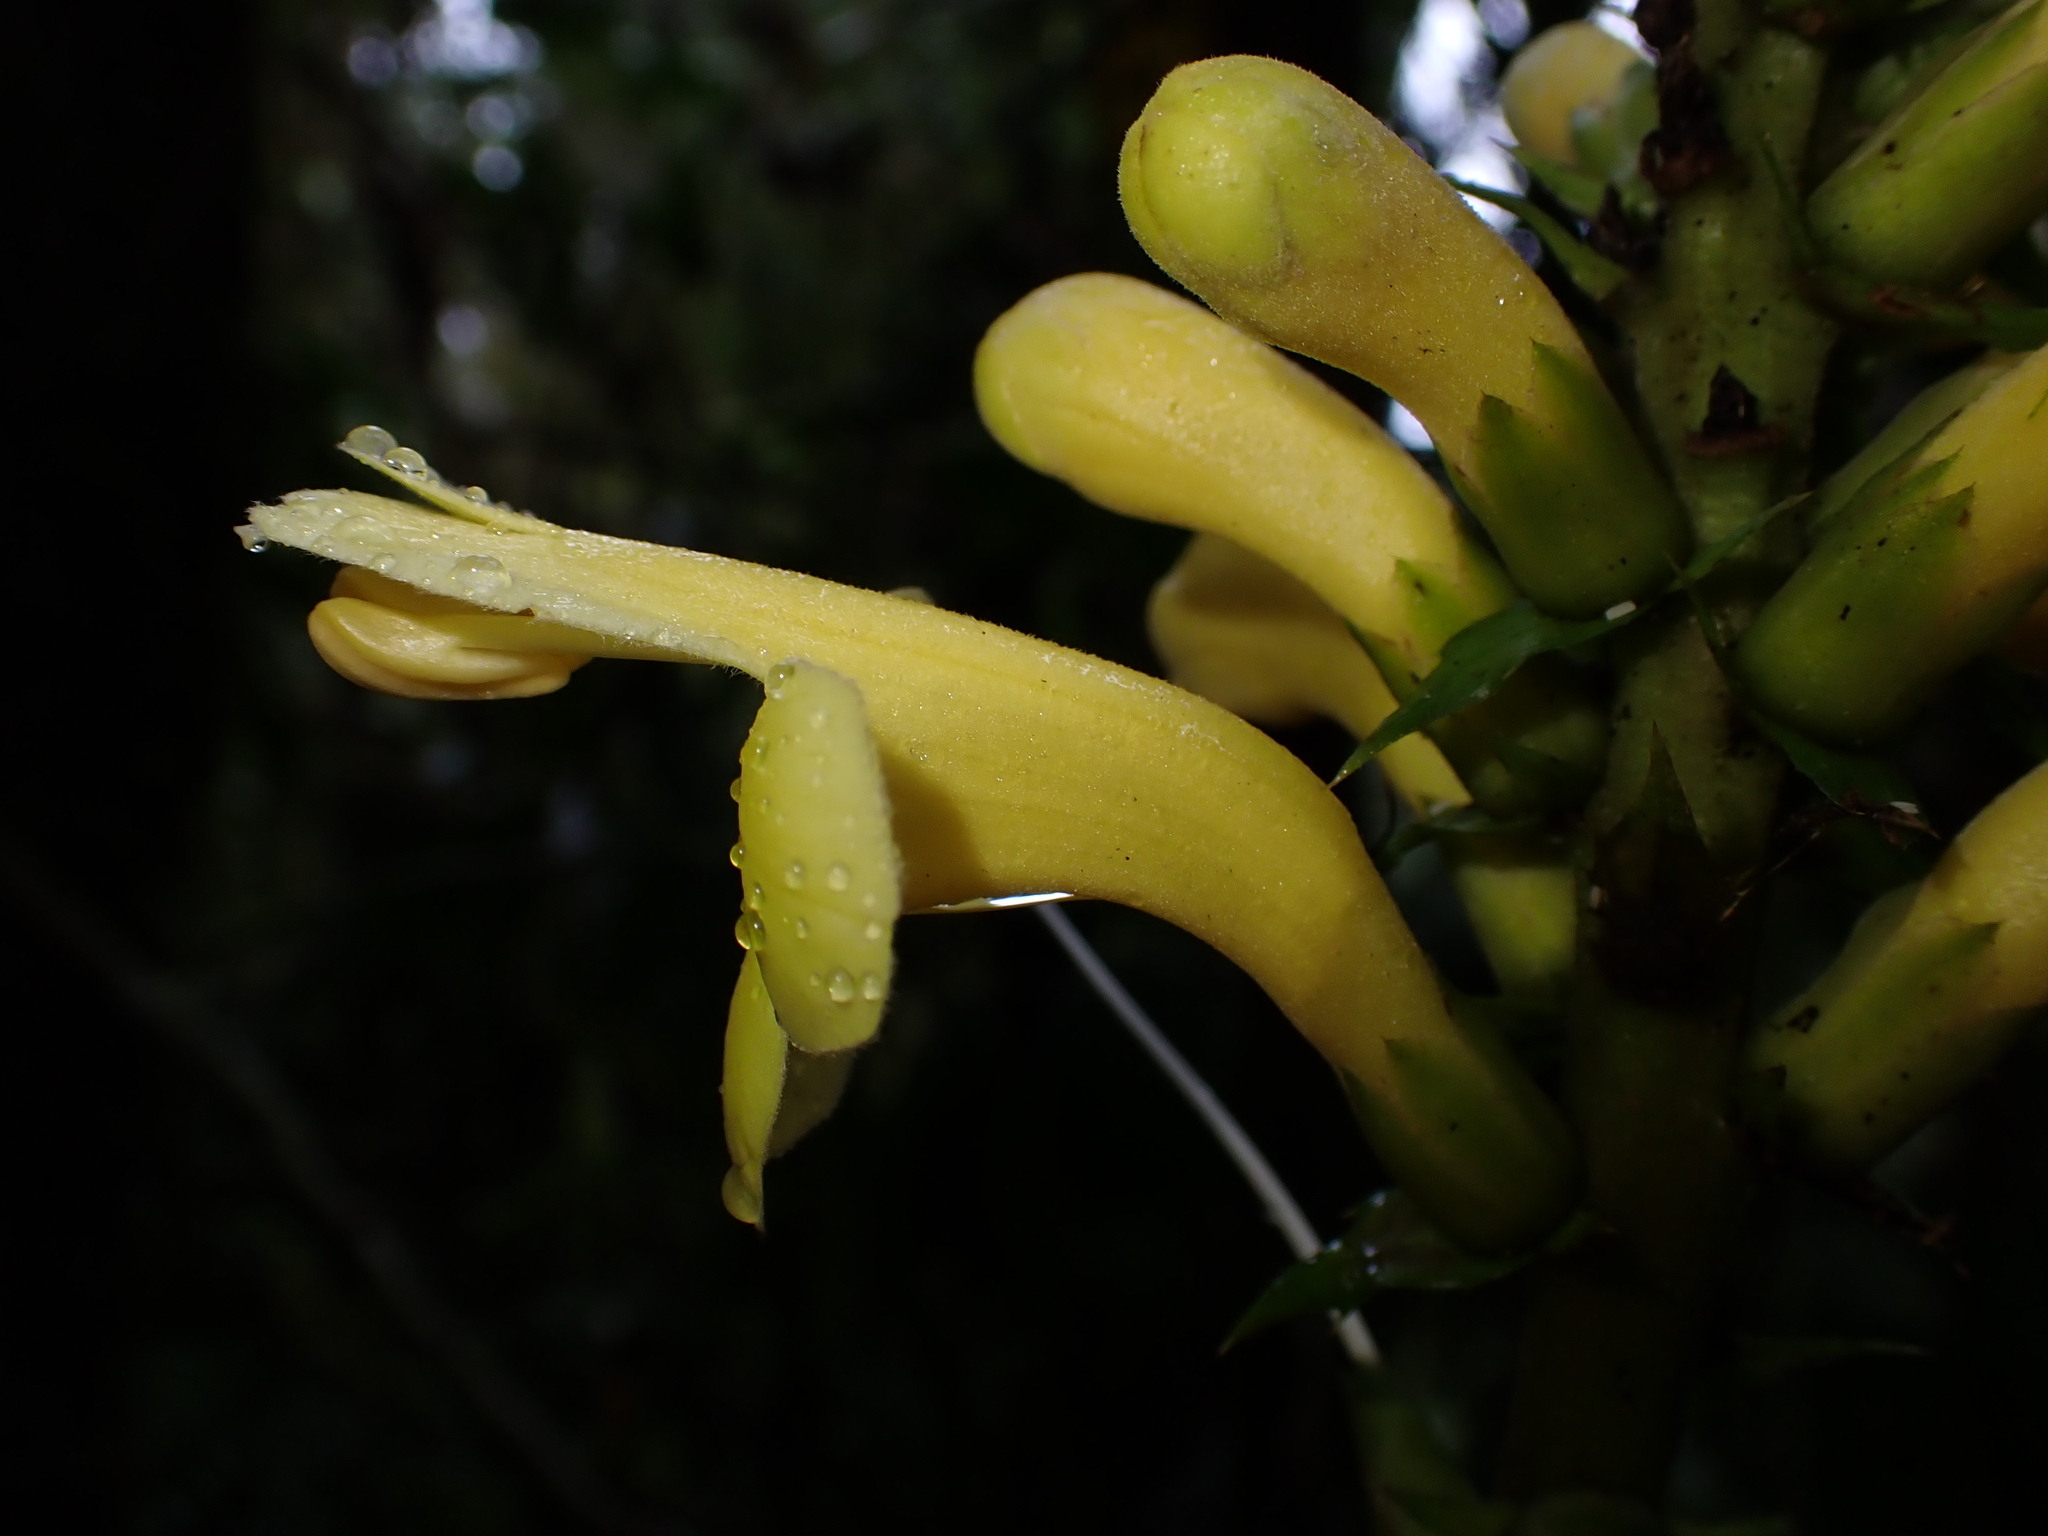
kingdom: Plantae
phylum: Tracheophyta
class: Magnoliopsida
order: Lamiales
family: Acanthaceae
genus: Aphelandra
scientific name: Aphelandra acanthus
